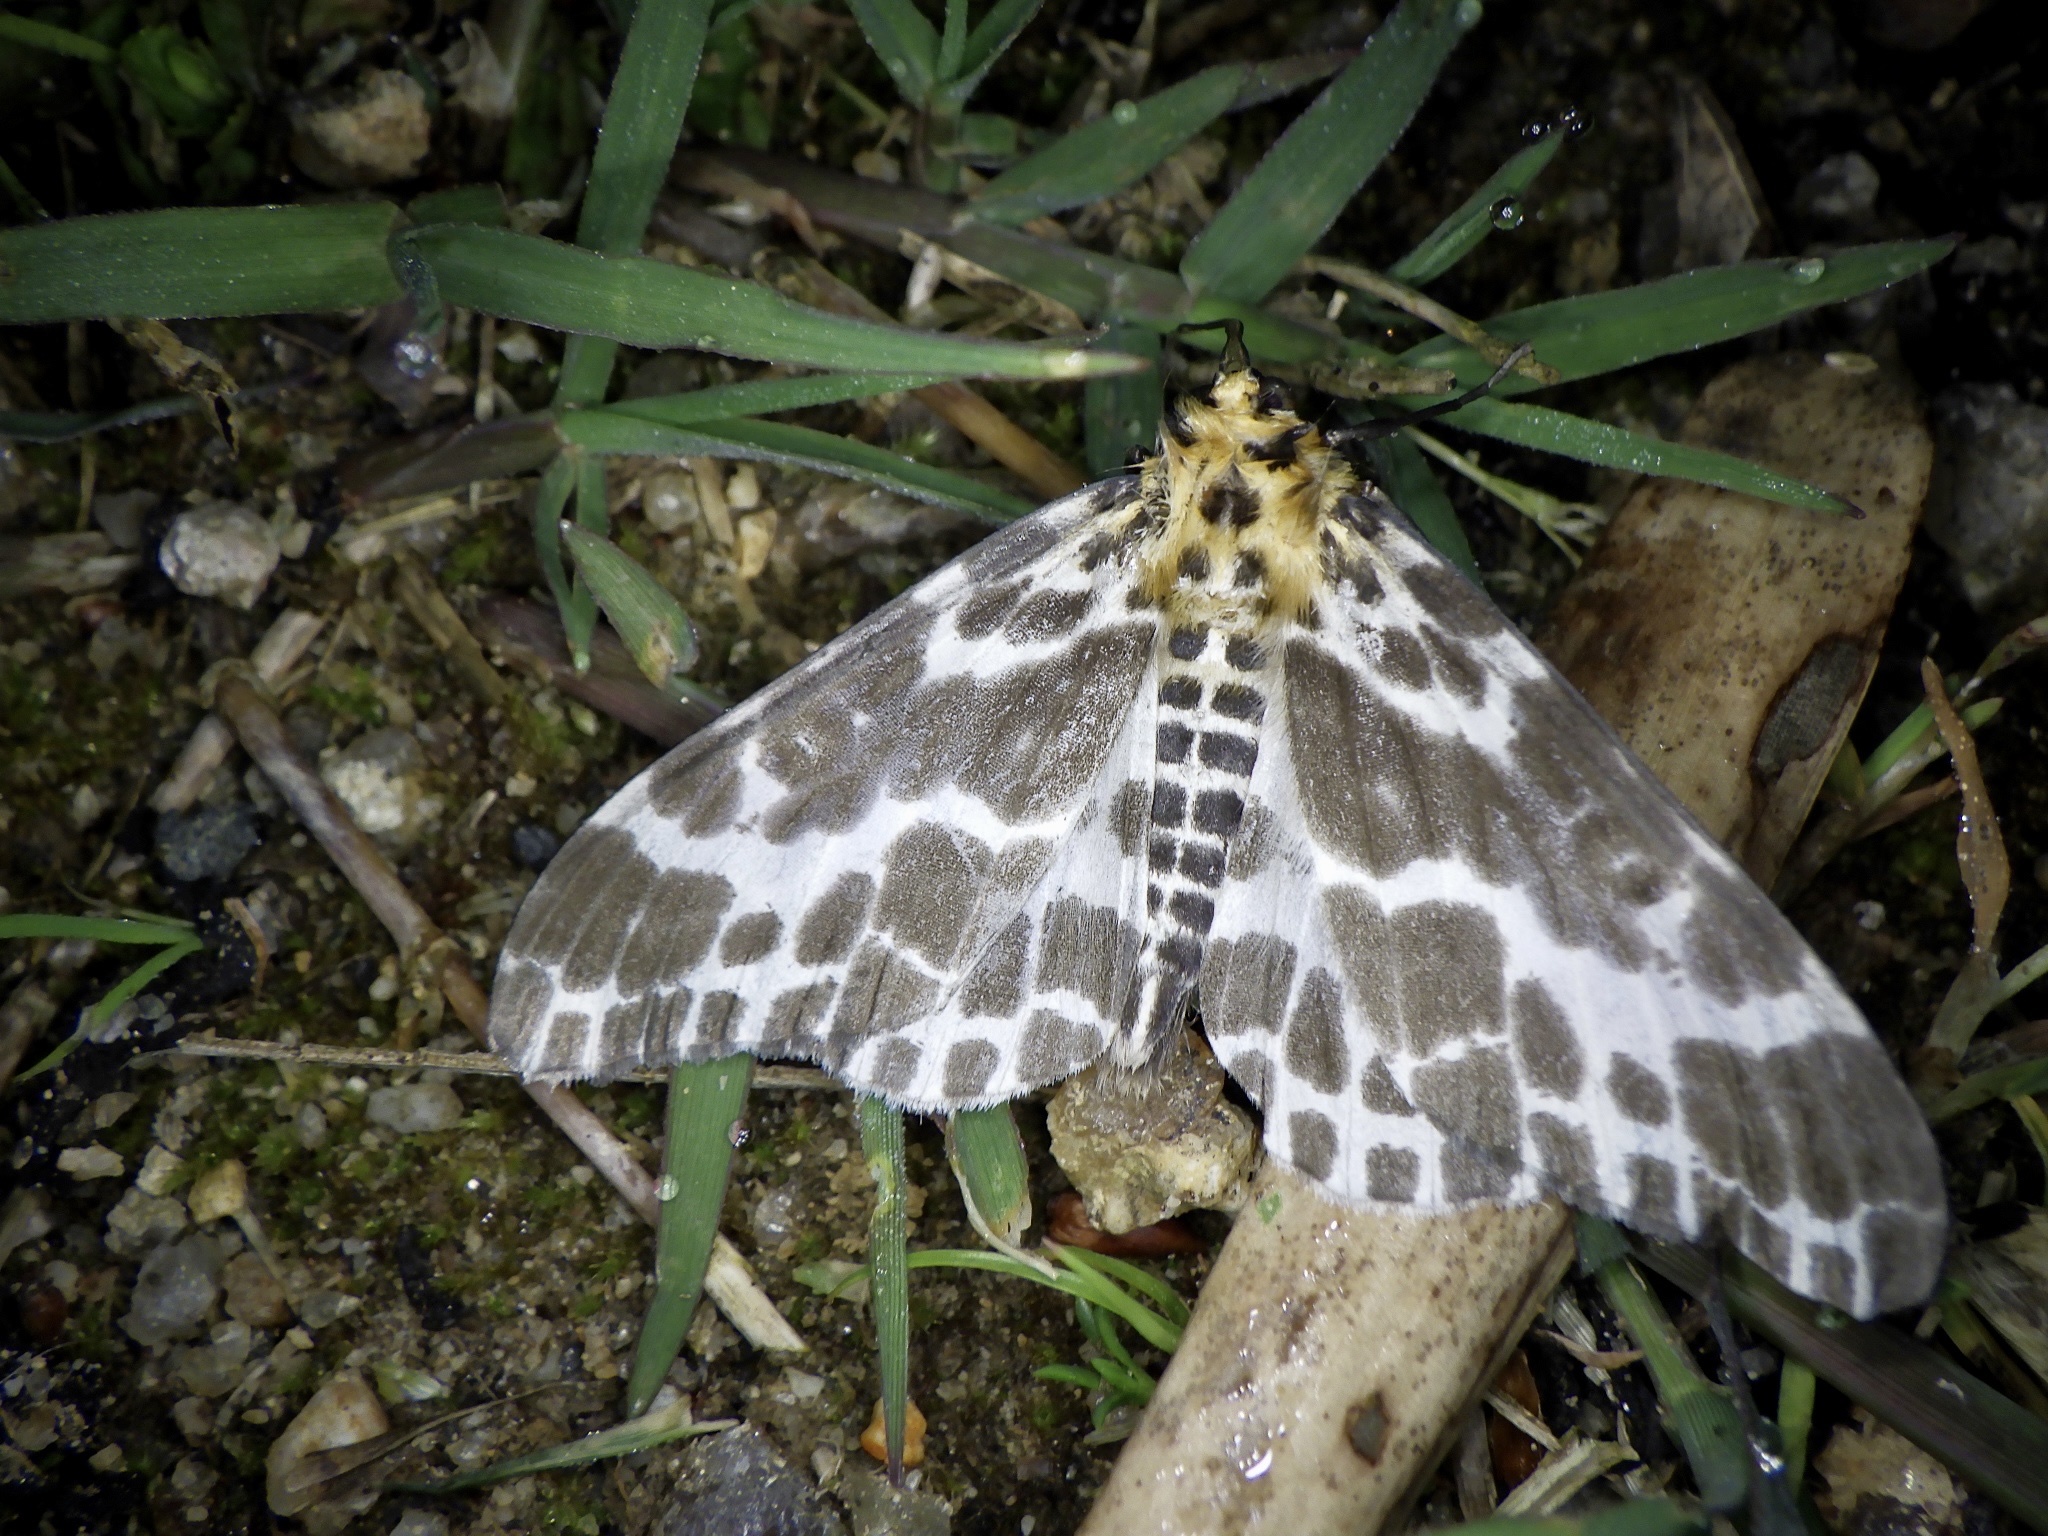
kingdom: Animalia
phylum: Arthropoda
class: Insecta
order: Lepidoptera
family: Geometridae
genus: Pogonopygia
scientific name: Pogonopygia nigralbata
